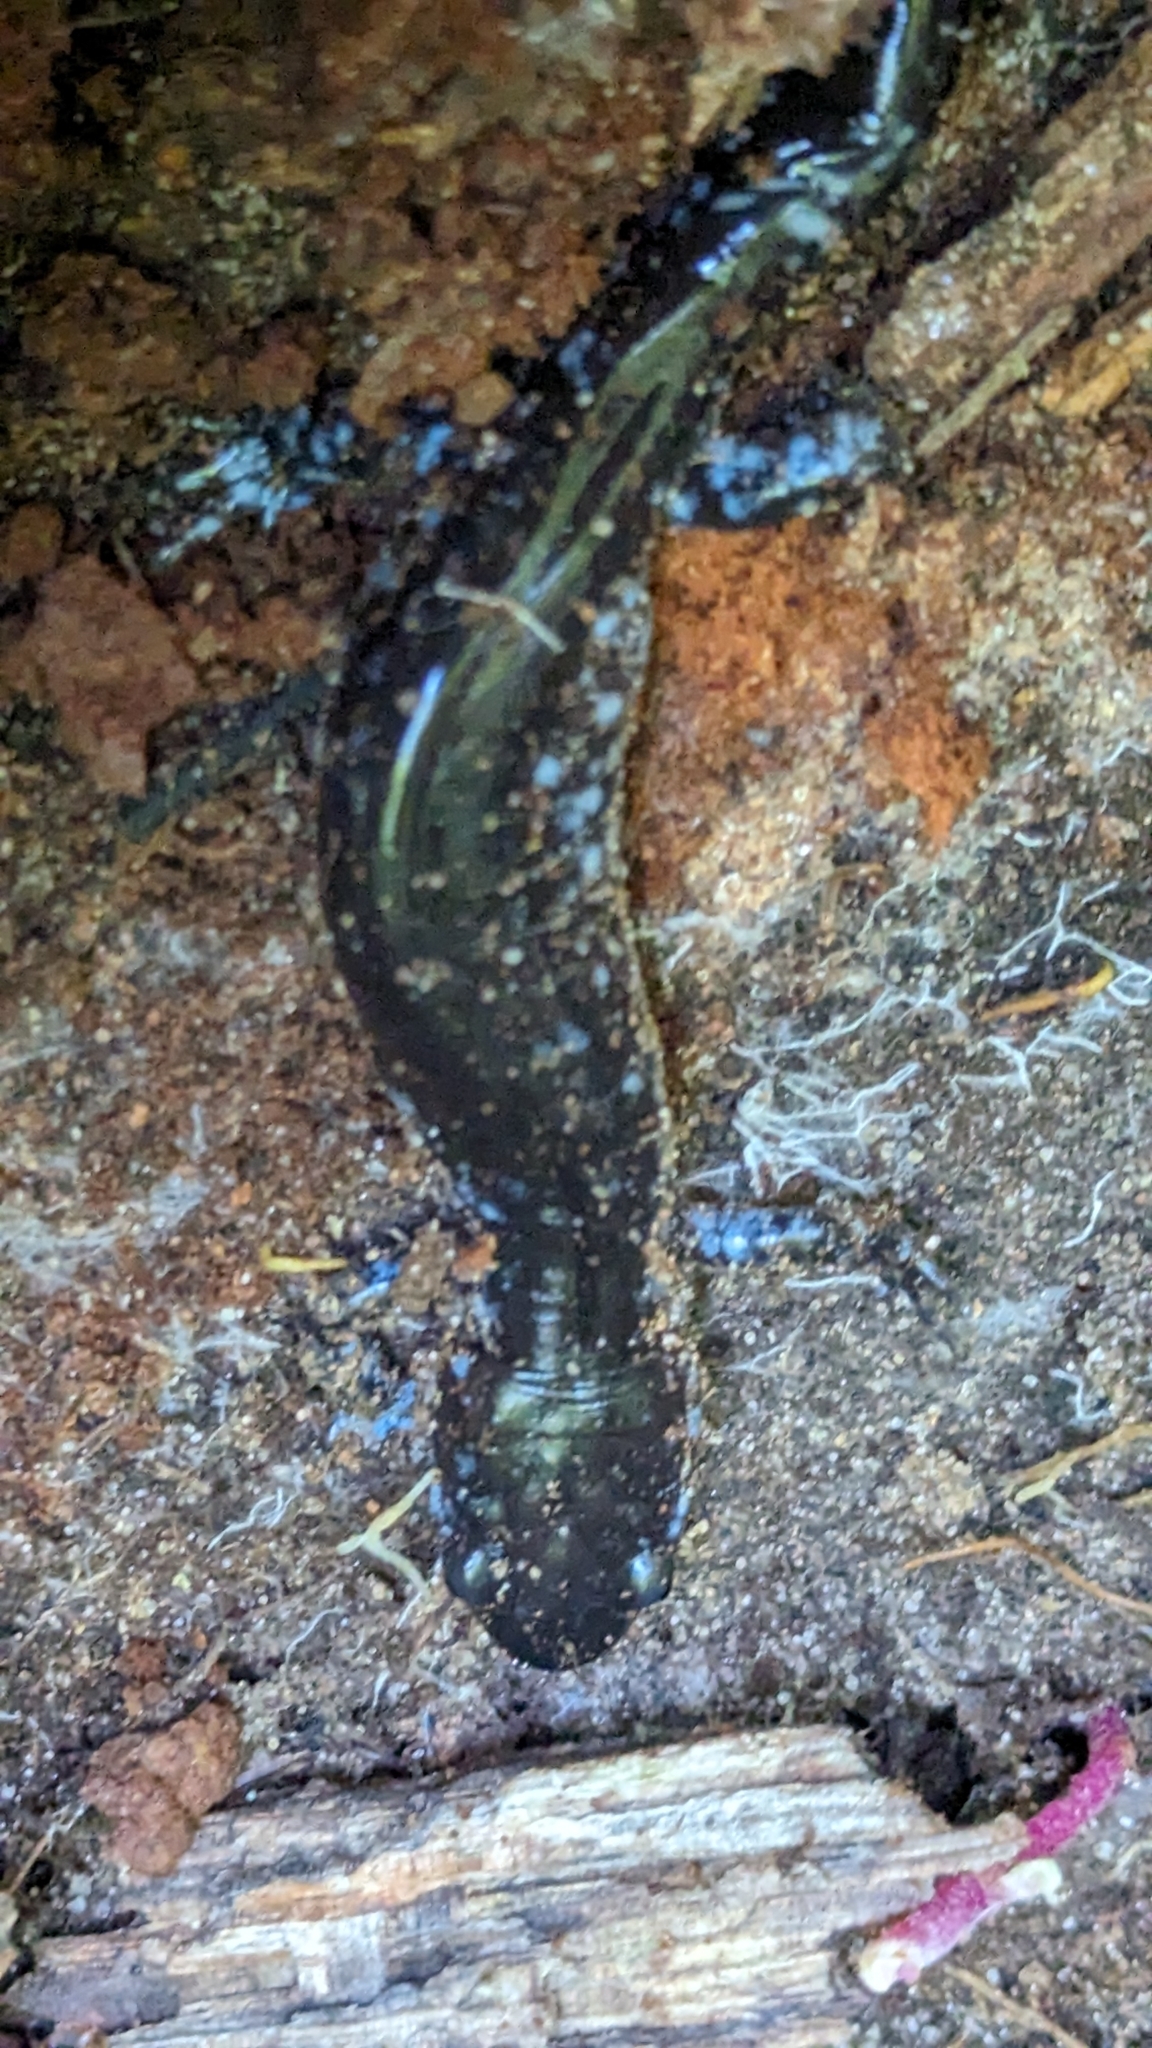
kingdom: Animalia
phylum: Chordata
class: Amphibia
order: Caudata
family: Ambystomatidae
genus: Ambystoma
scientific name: Ambystoma laterale
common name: Blue-spotted salamander
